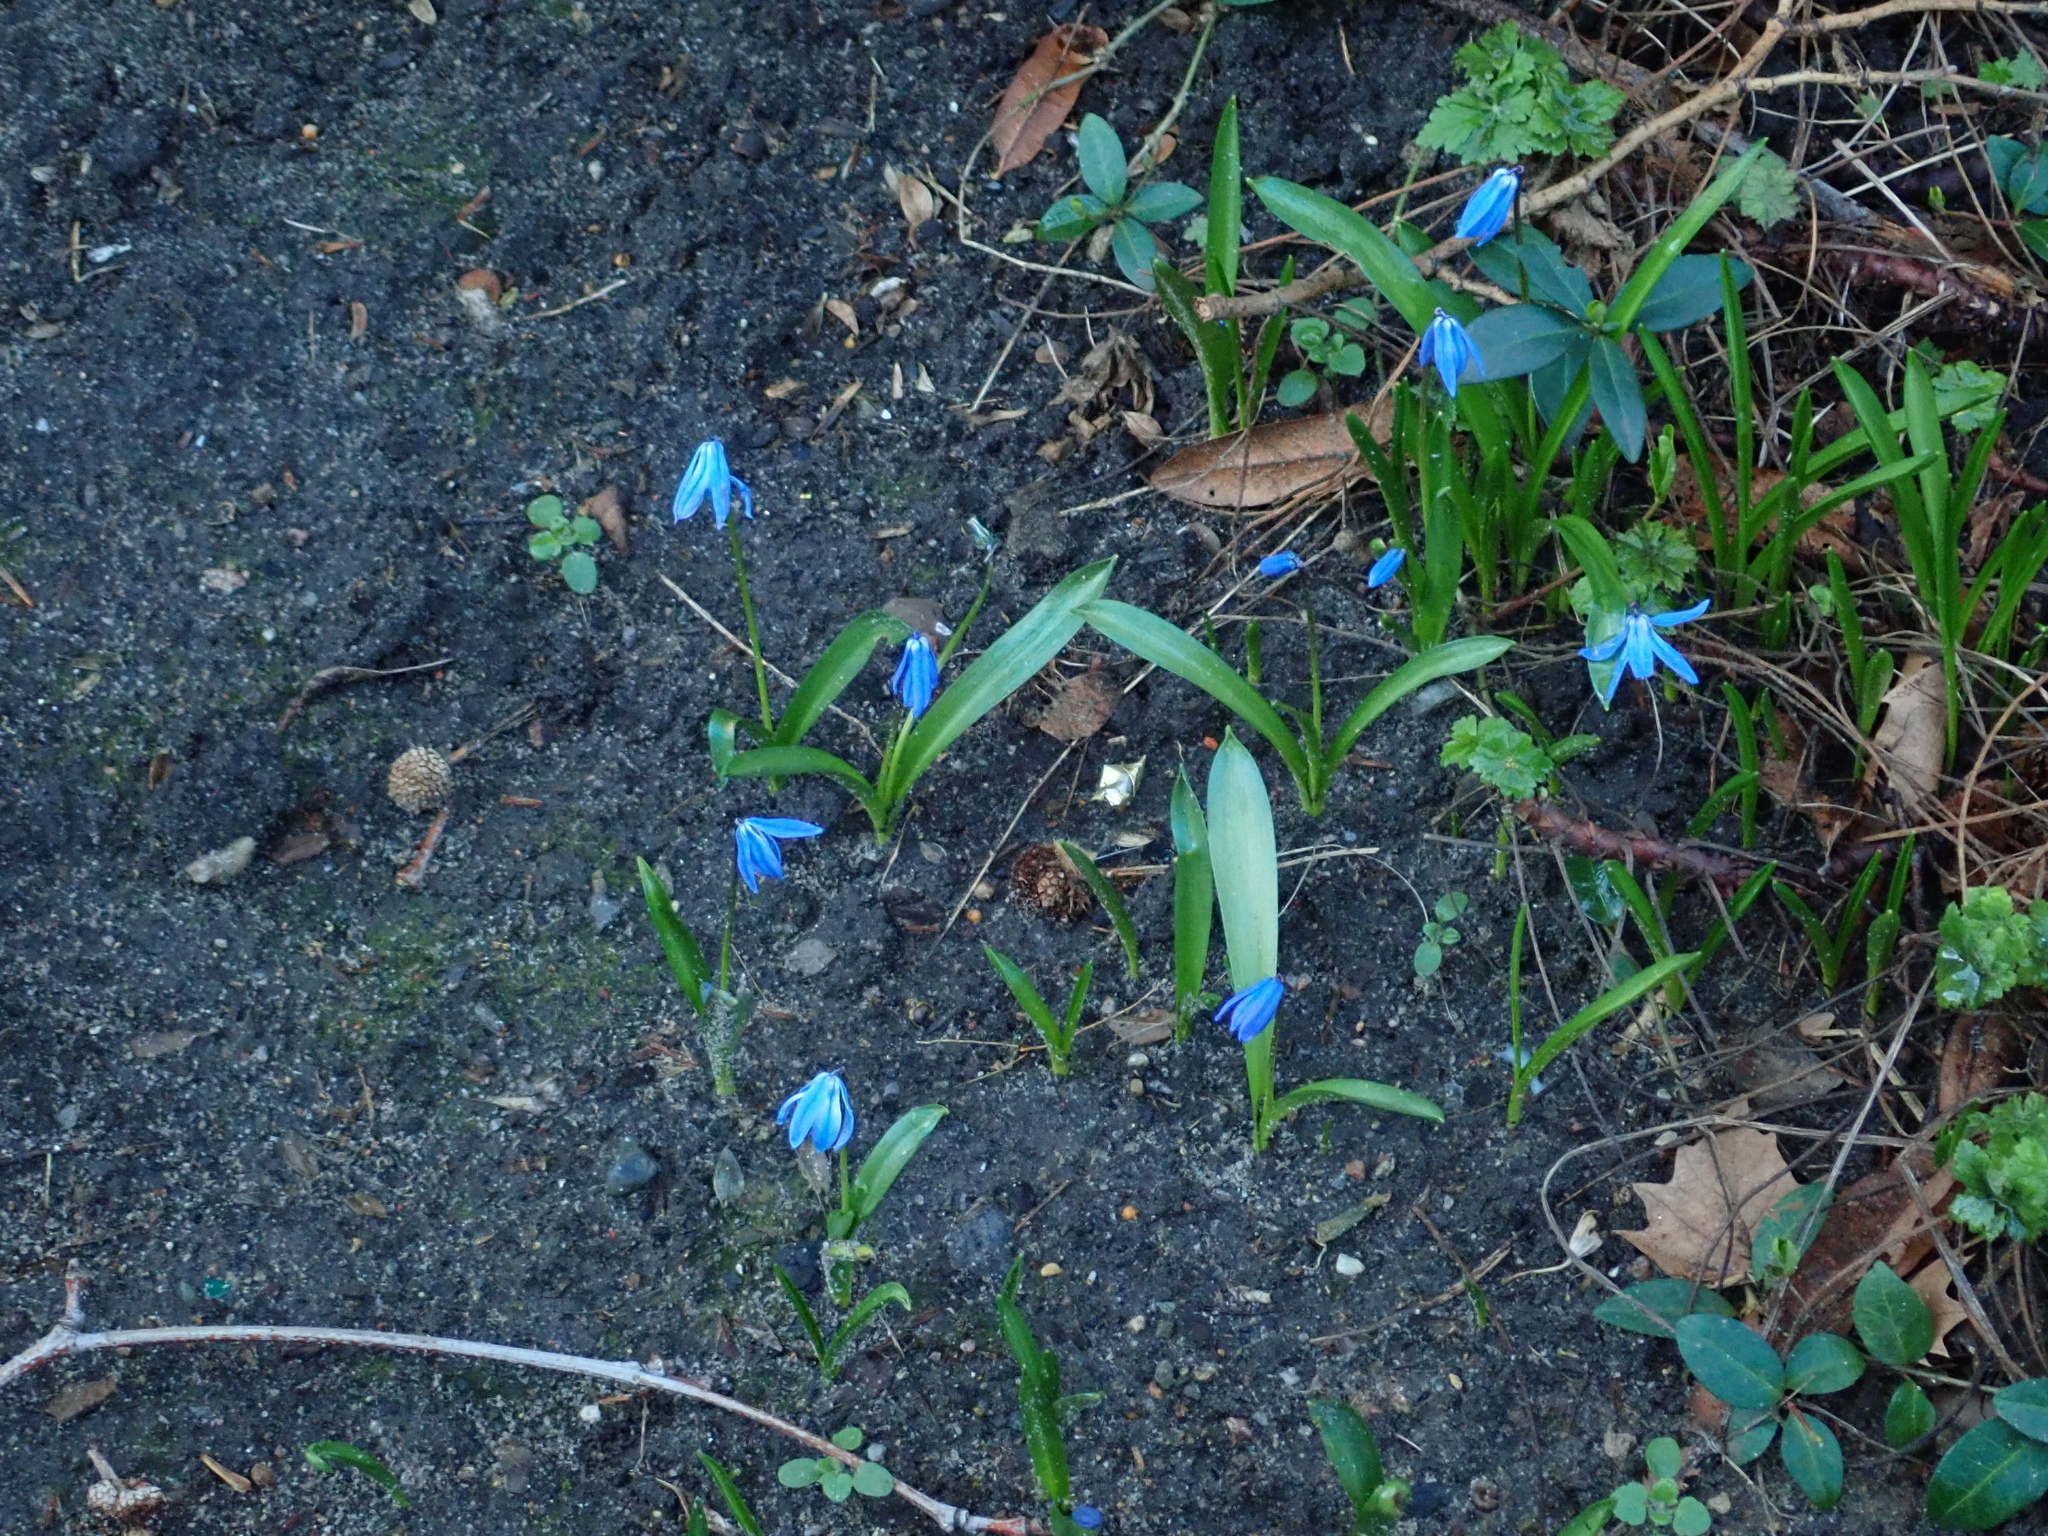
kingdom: Plantae
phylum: Tracheophyta
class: Liliopsida
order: Asparagales
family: Asparagaceae
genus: Scilla
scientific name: Scilla siberica
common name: Siberian squill
